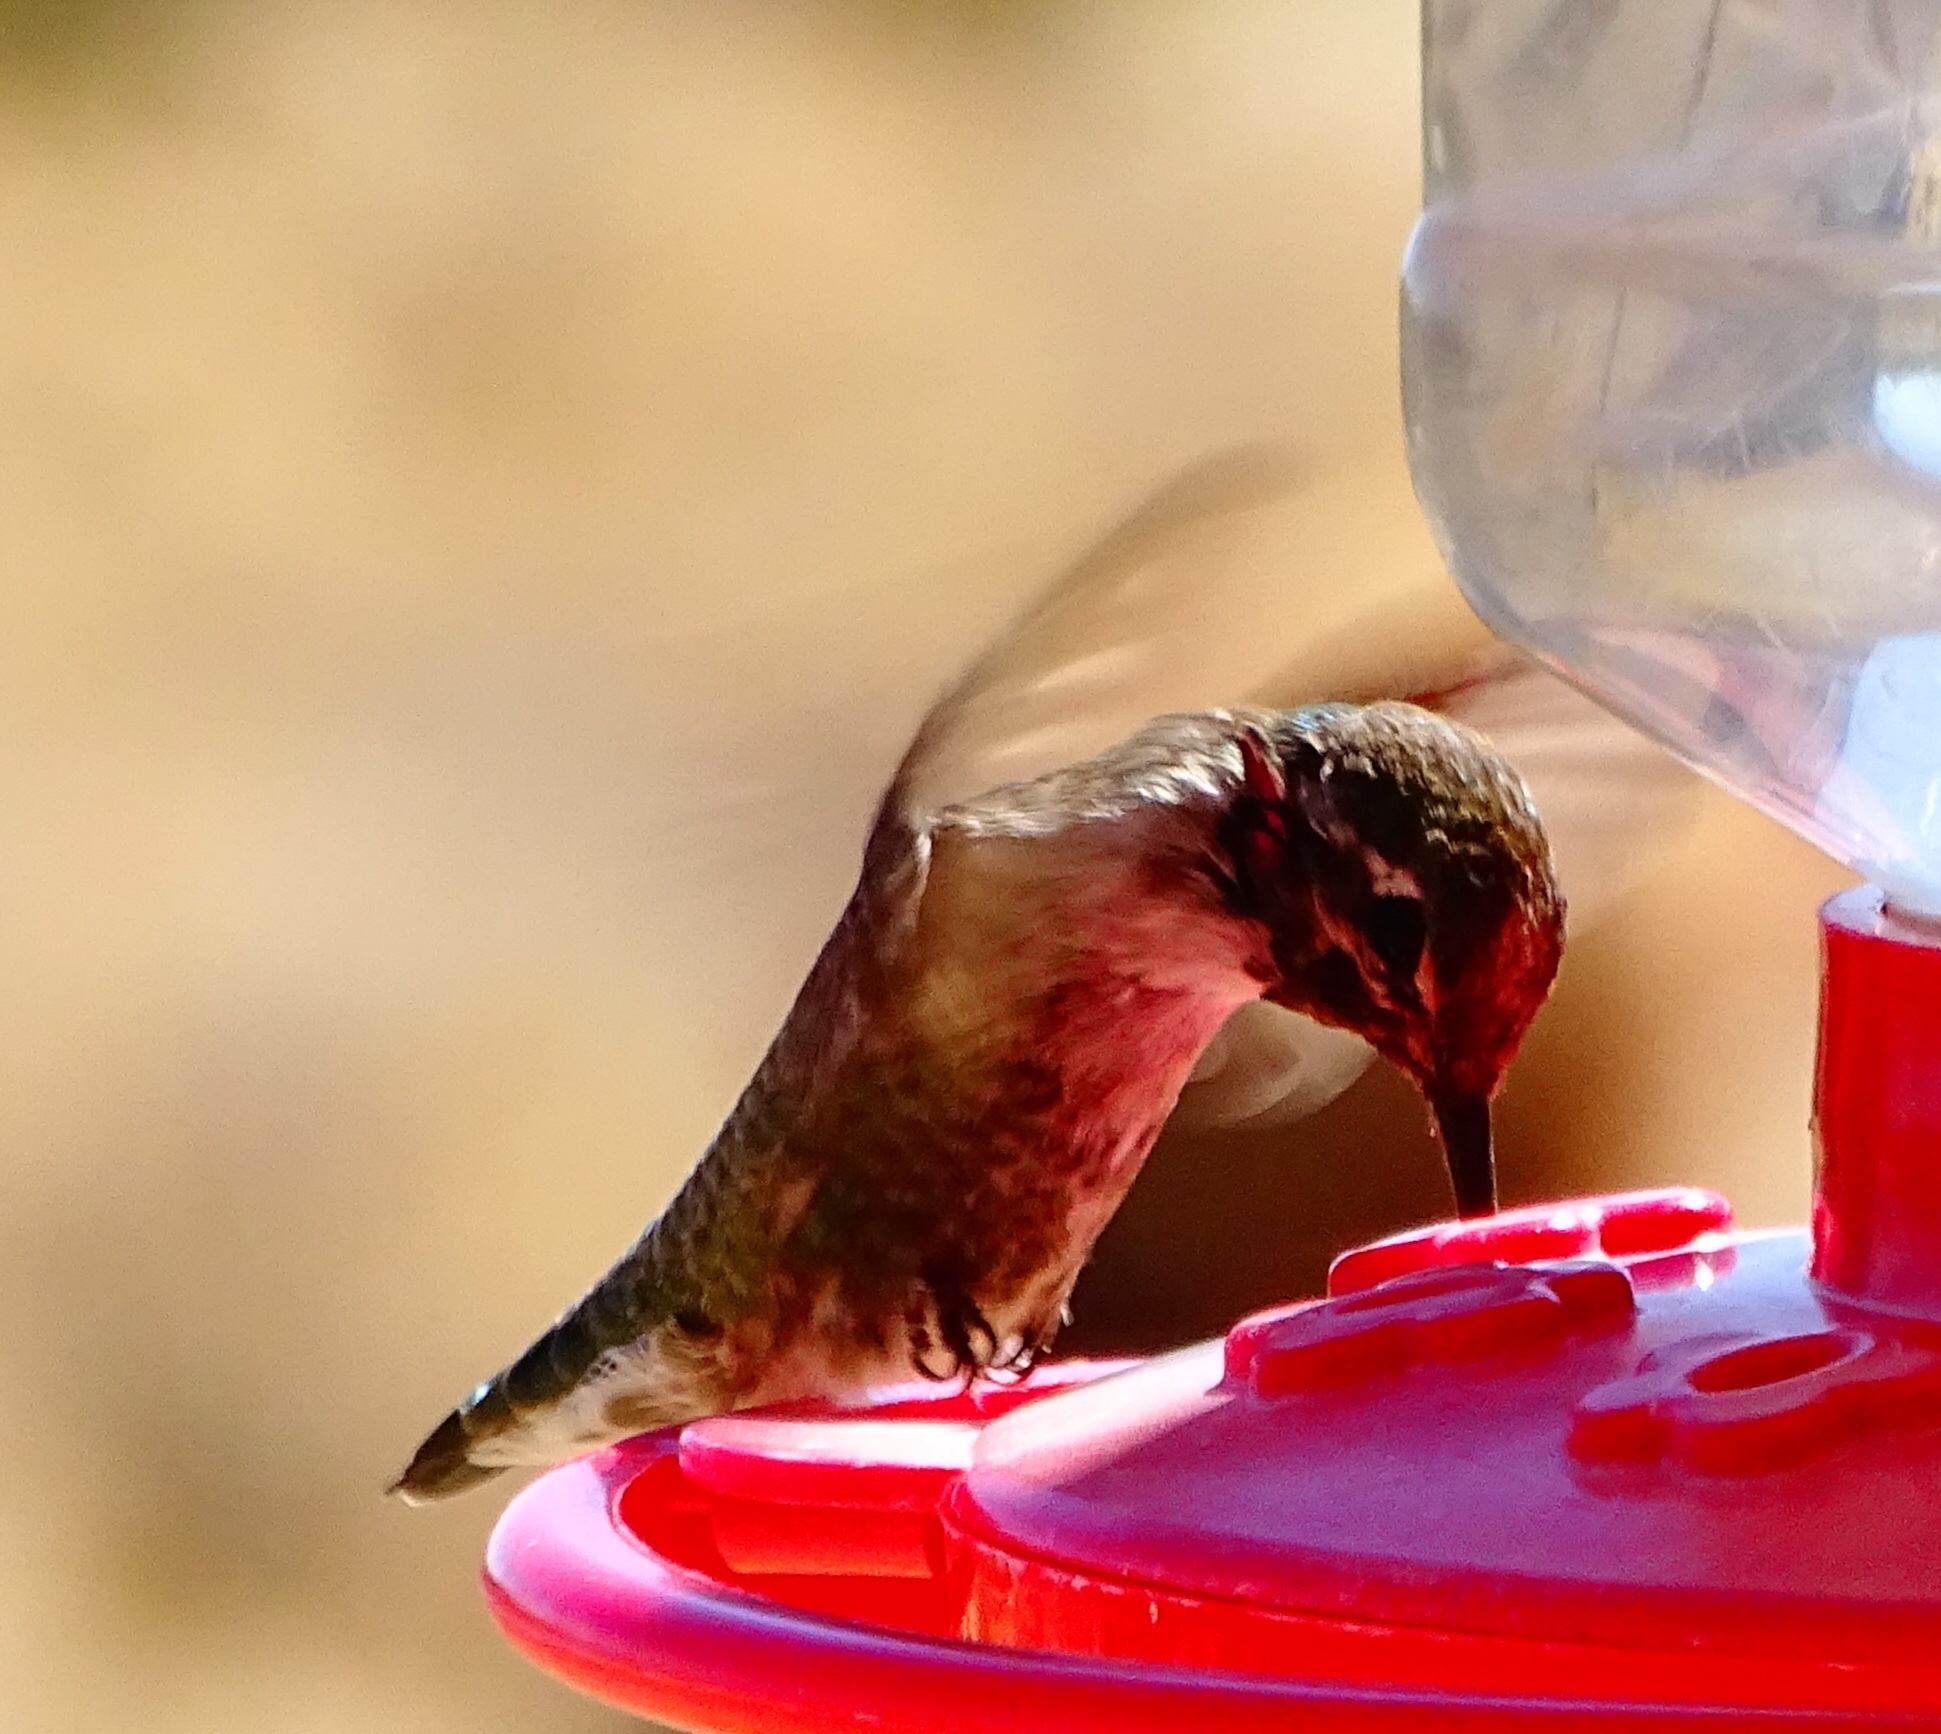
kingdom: Animalia
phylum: Chordata
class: Aves
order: Apodiformes
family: Trochilidae
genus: Calypte
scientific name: Calypte costae
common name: Costa's hummingbird
